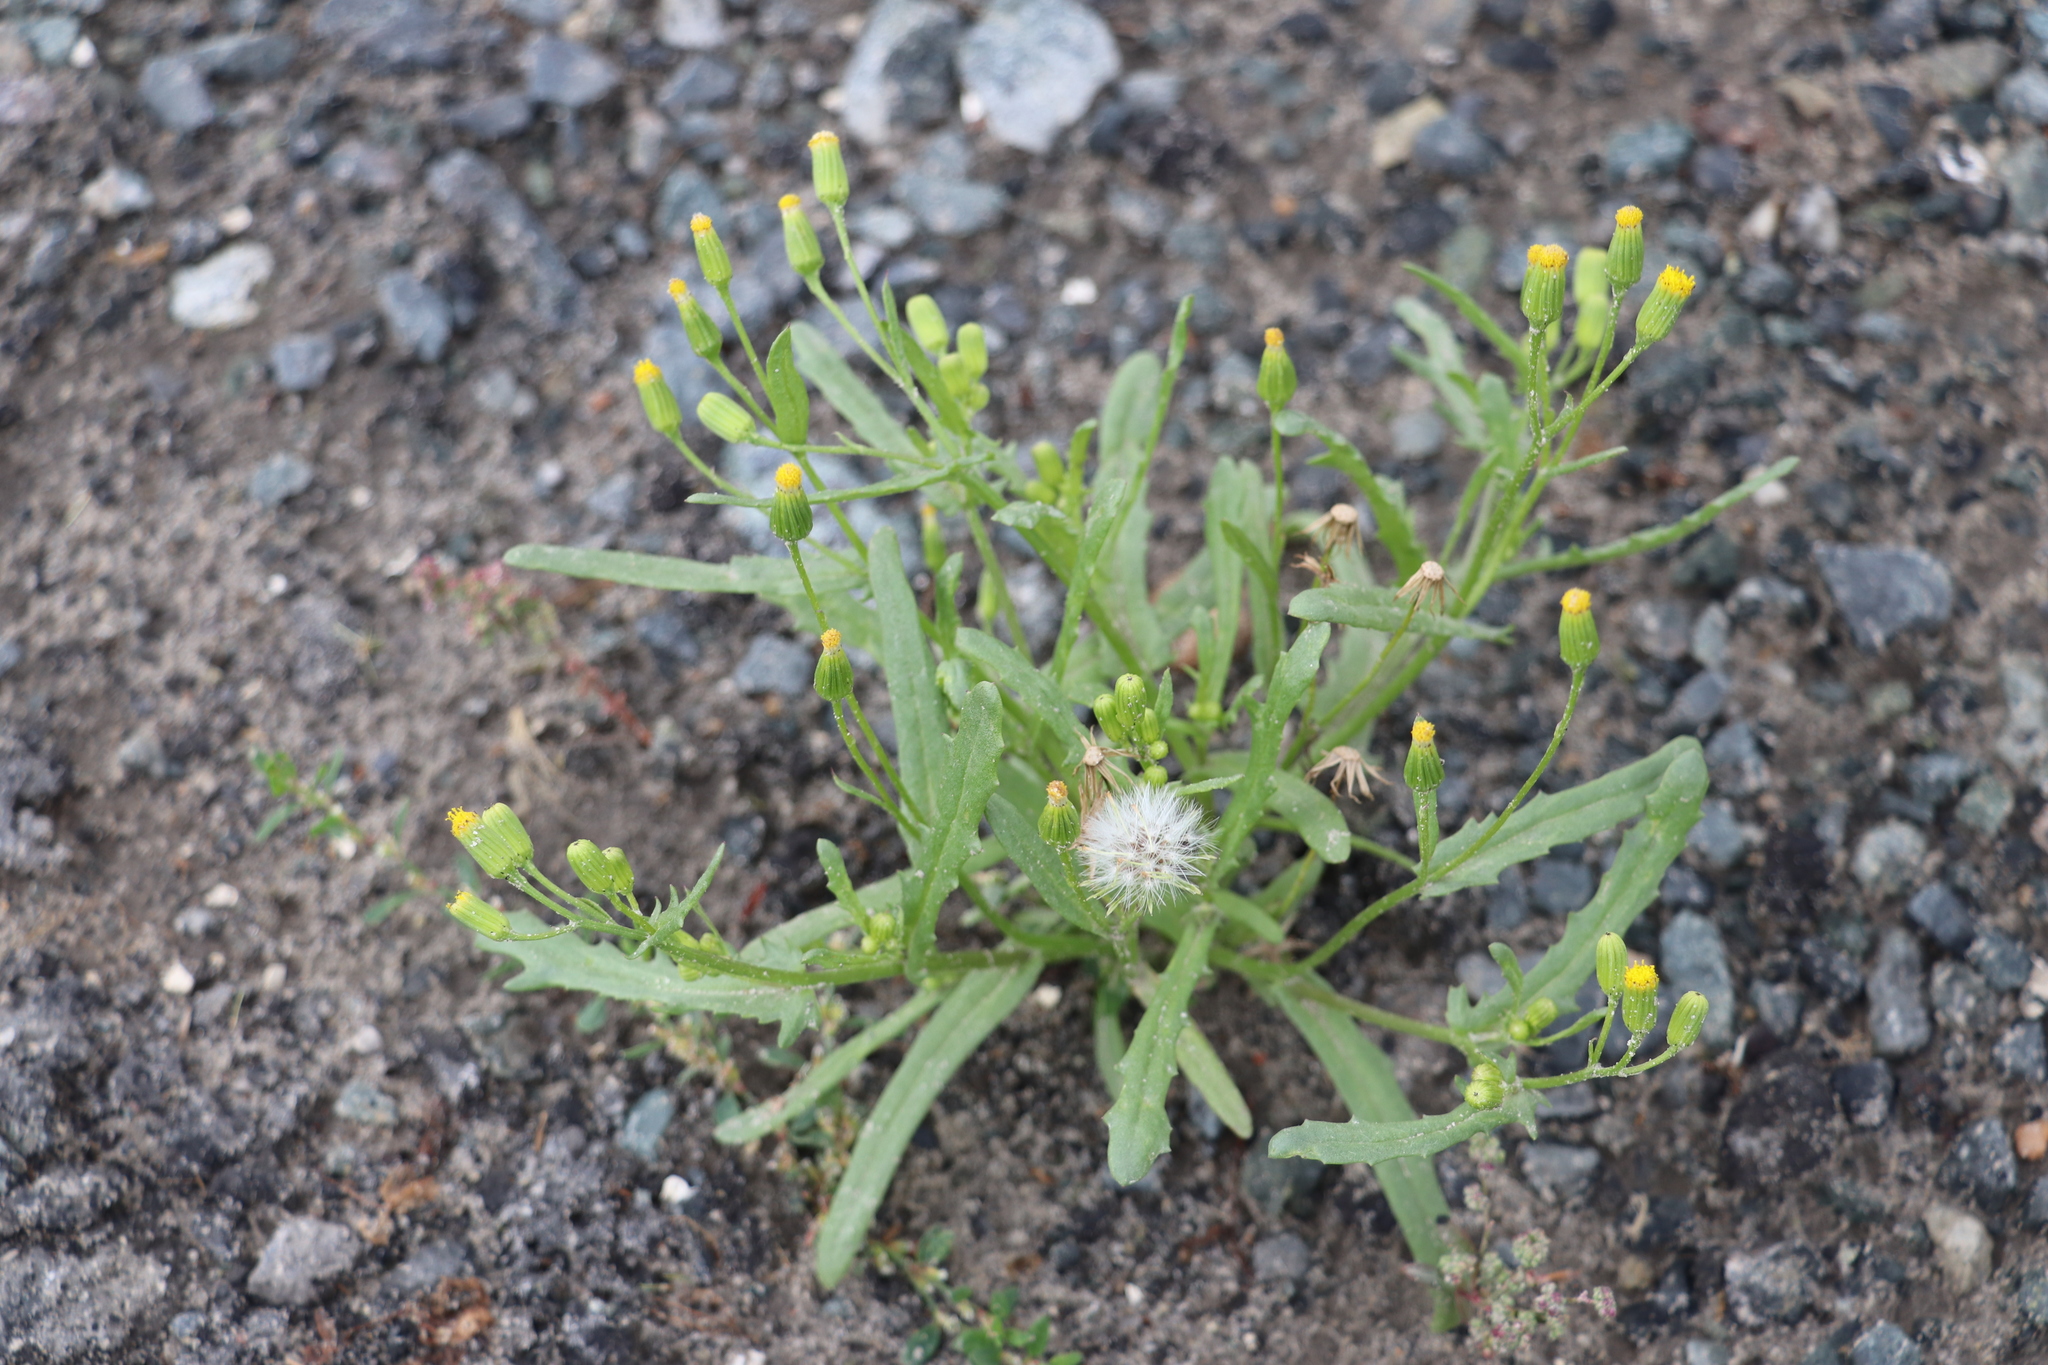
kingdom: Plantae
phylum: Tracheophyta
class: Magnoliopsida
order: Asterales
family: Asteraceae
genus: Senecio
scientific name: Senecio dubitabilis
